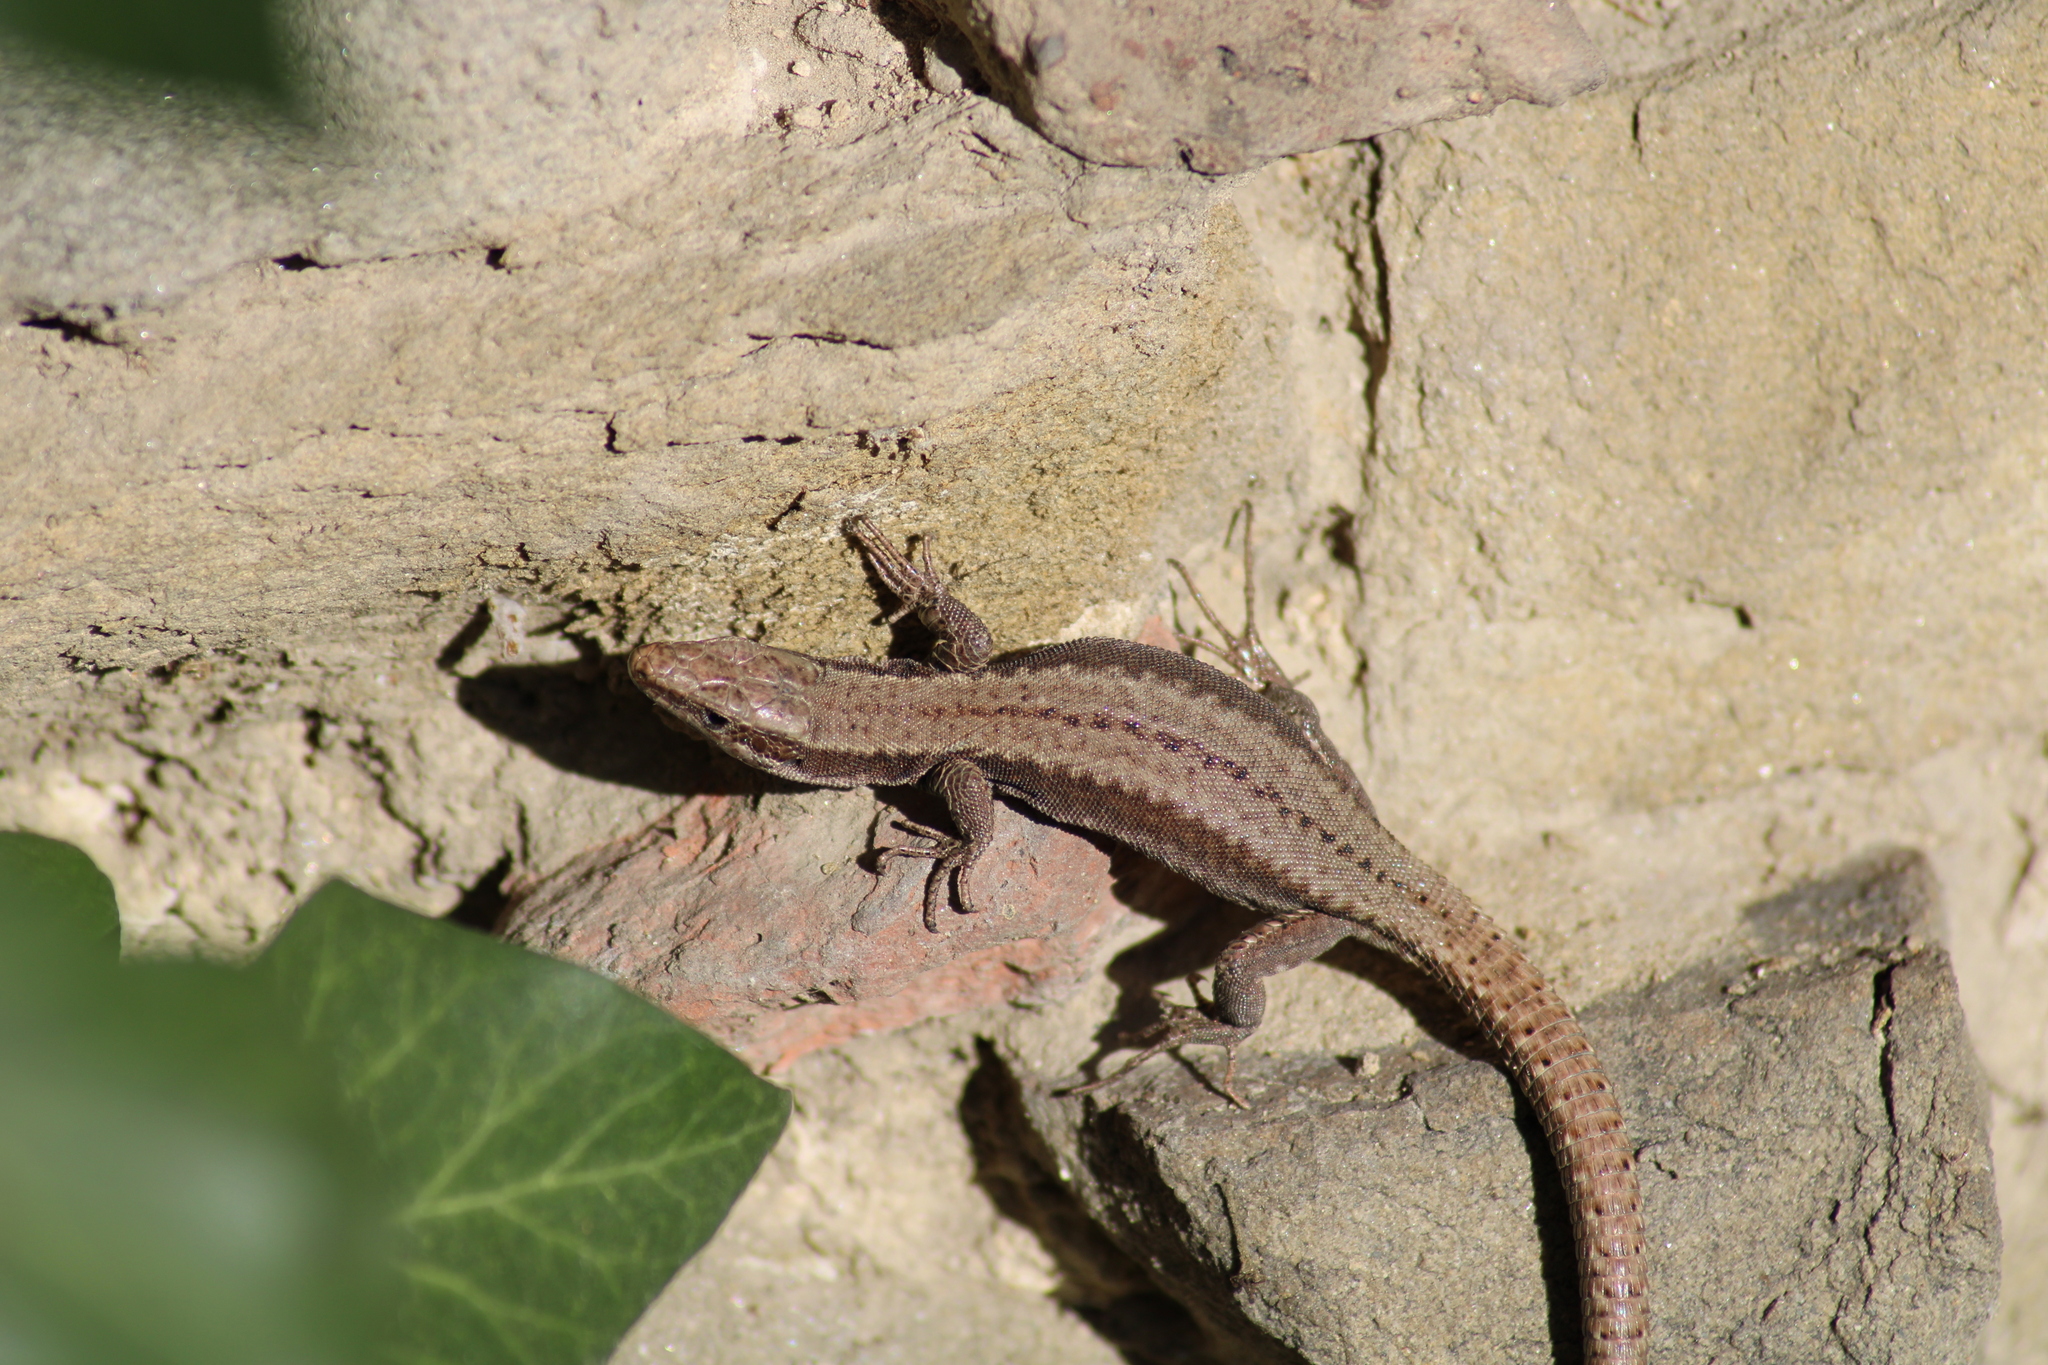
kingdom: Animalia
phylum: Chordata
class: Squamata
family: Lacertidae
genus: Podarcis
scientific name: Podarcis muralis
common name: Common wall lizard
